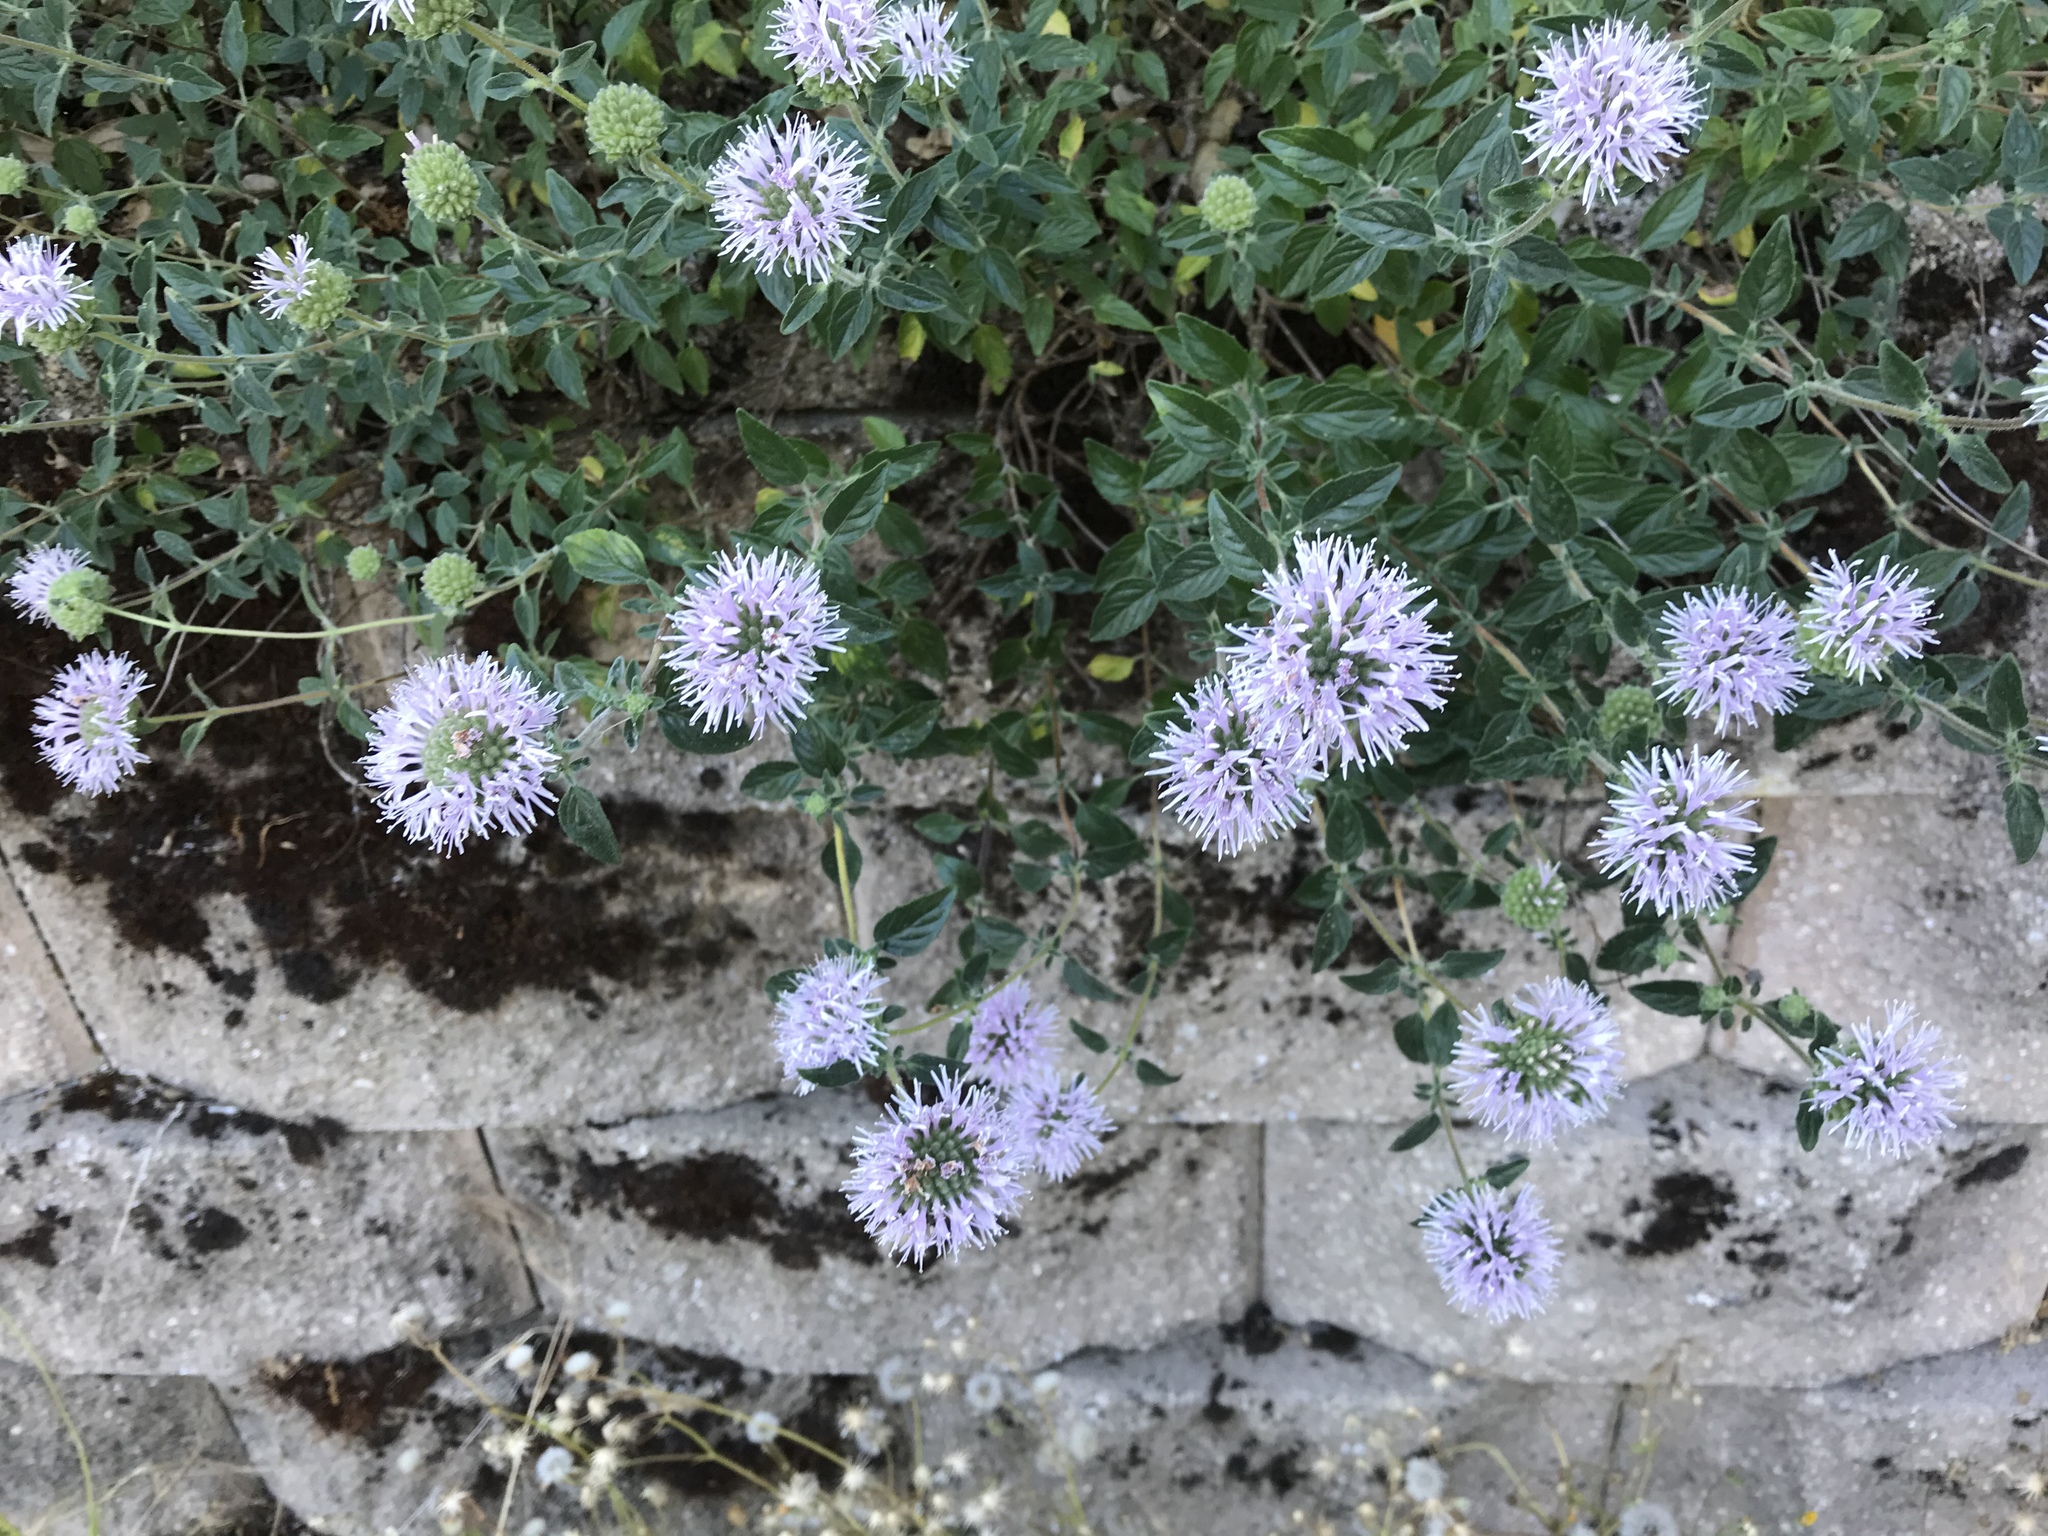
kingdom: Plantae
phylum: Tracheophyta
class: Magnoliopsida
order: Lamiales
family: Lamiaceae
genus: Monardella
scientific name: Monardella odoratissima
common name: Pacific monardella
